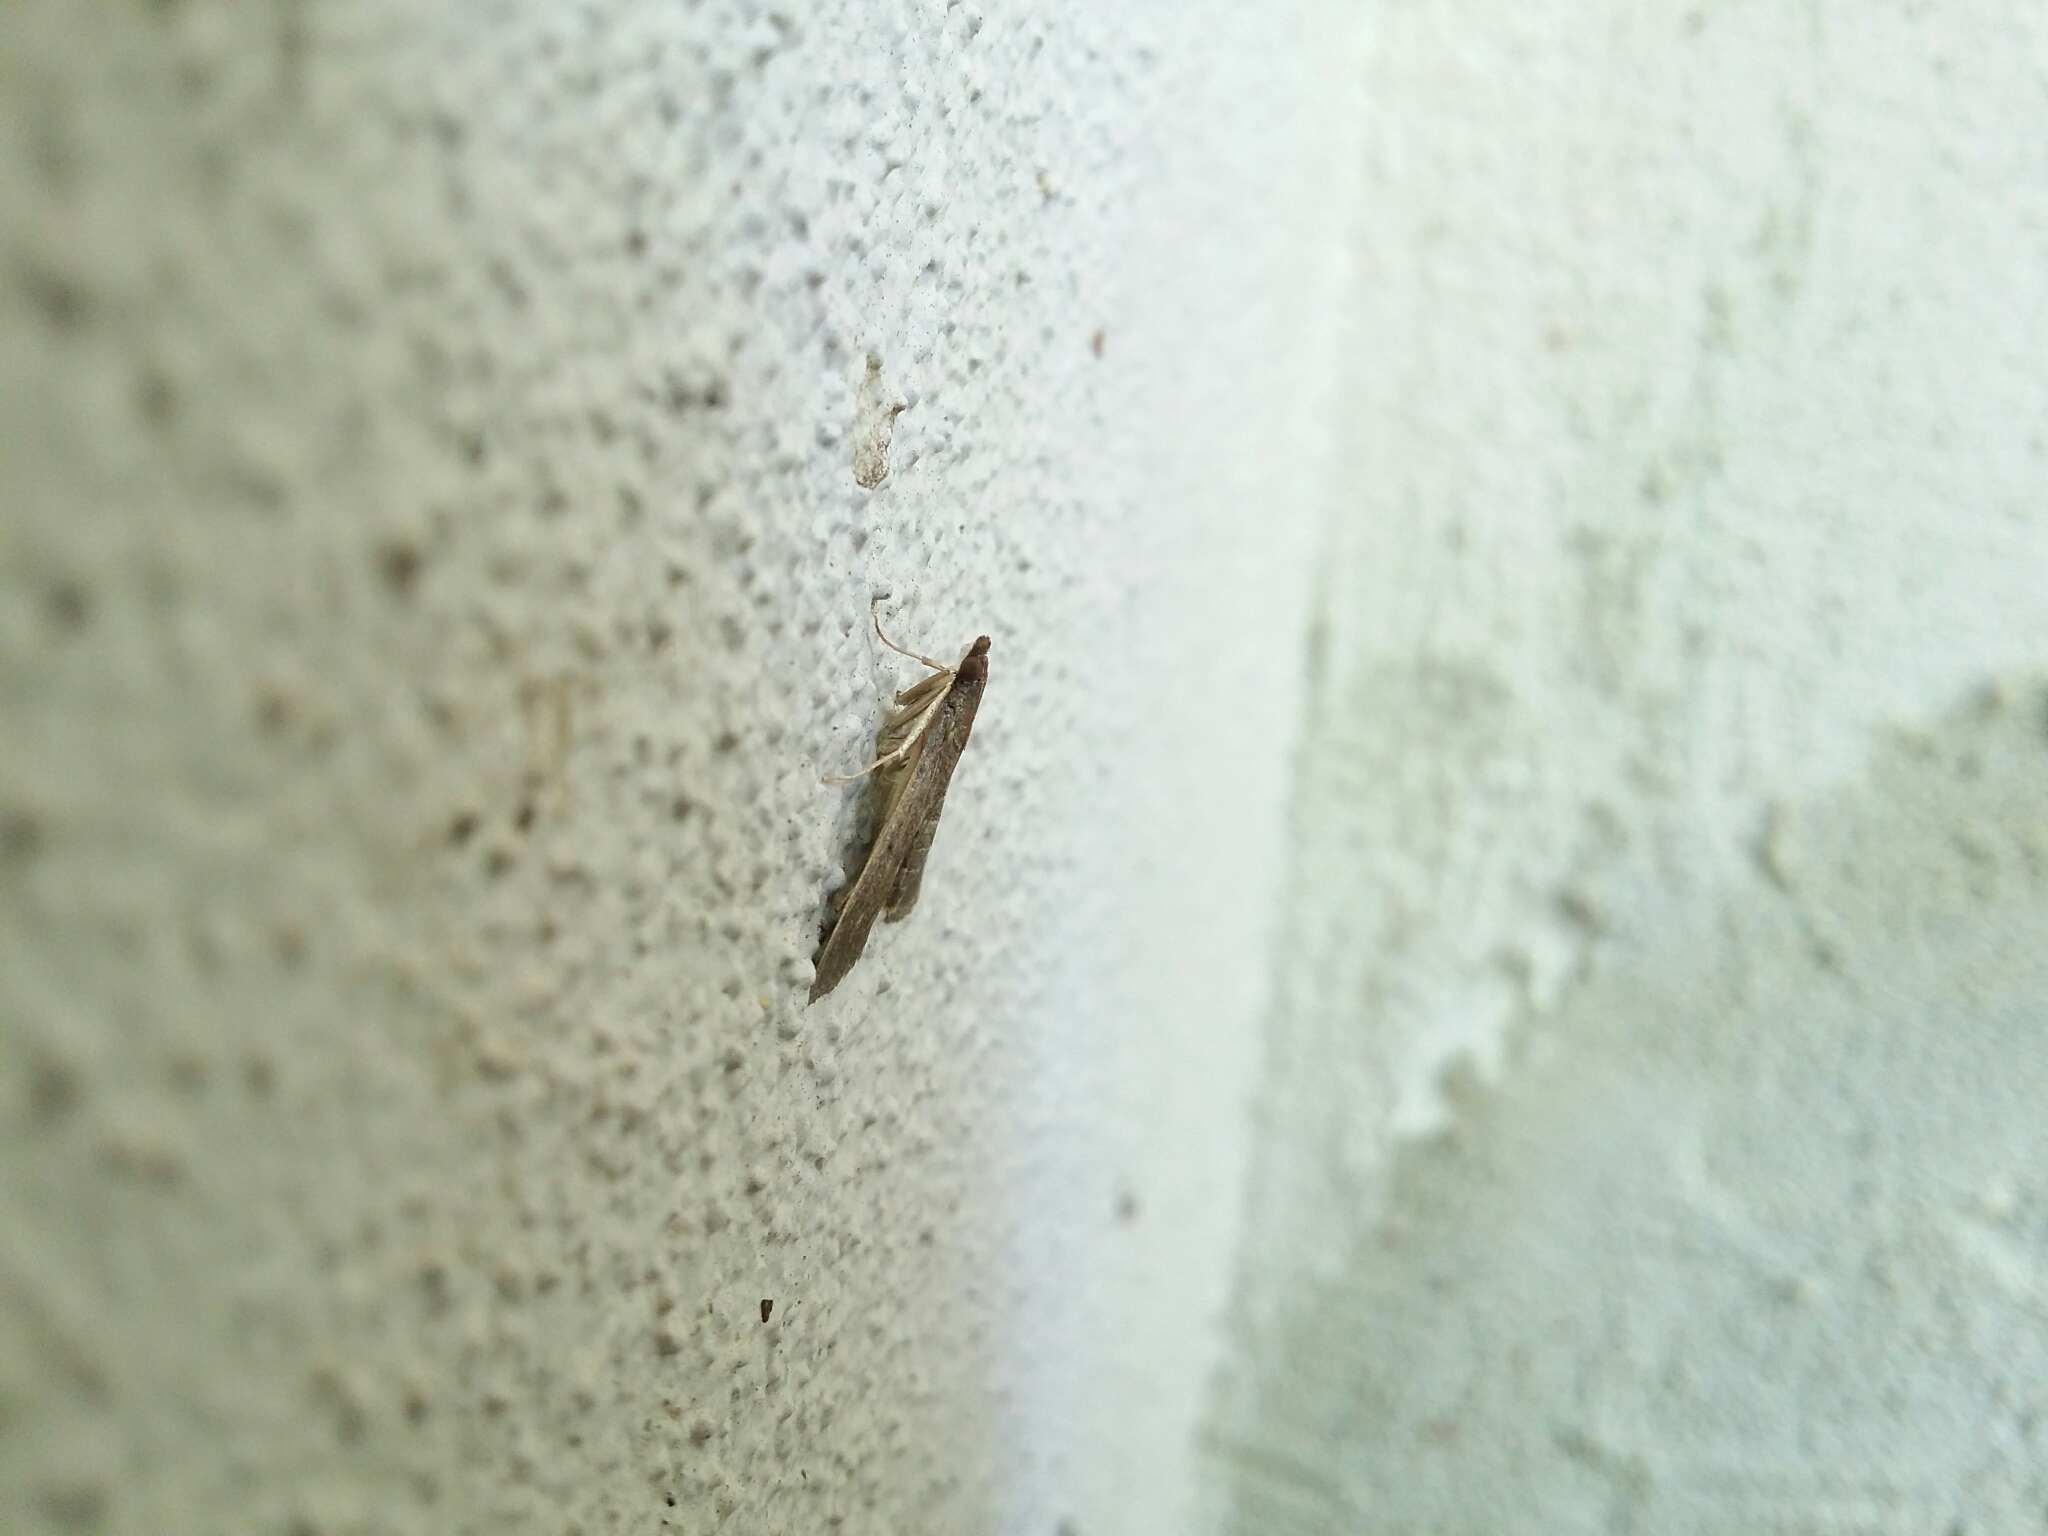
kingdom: Animalia
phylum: Arthropoda
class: Insecta
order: Lepidoptera
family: Crambidae
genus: Herpetogramma
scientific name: Herpetogramma licarsisalis
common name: Grass webworm
